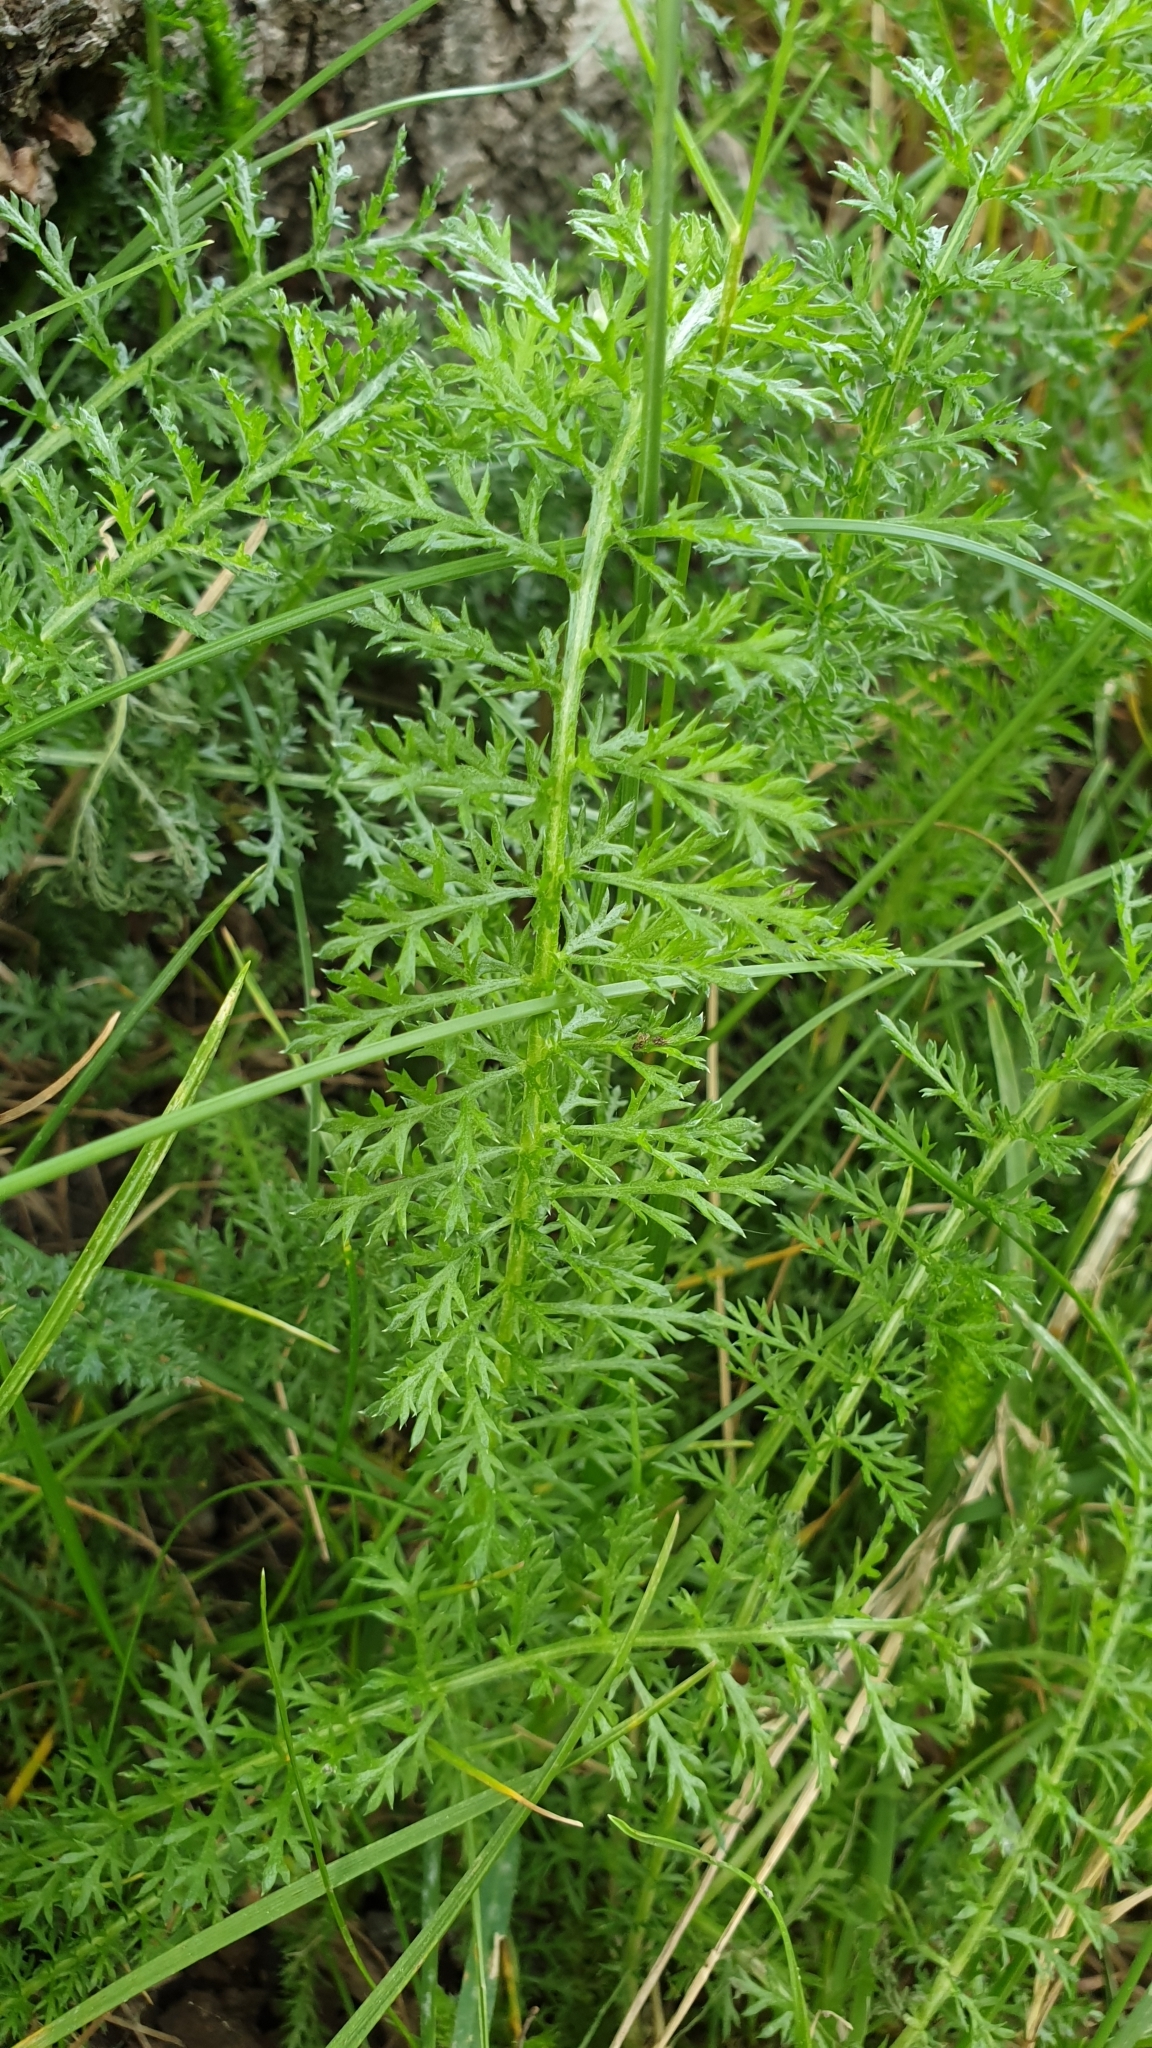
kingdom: Plantae
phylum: Tracheophyta
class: Magnoliopsida
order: Asterales
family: Asteraceae
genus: Achillea
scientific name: Achillea millefolium
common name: Yarrow
